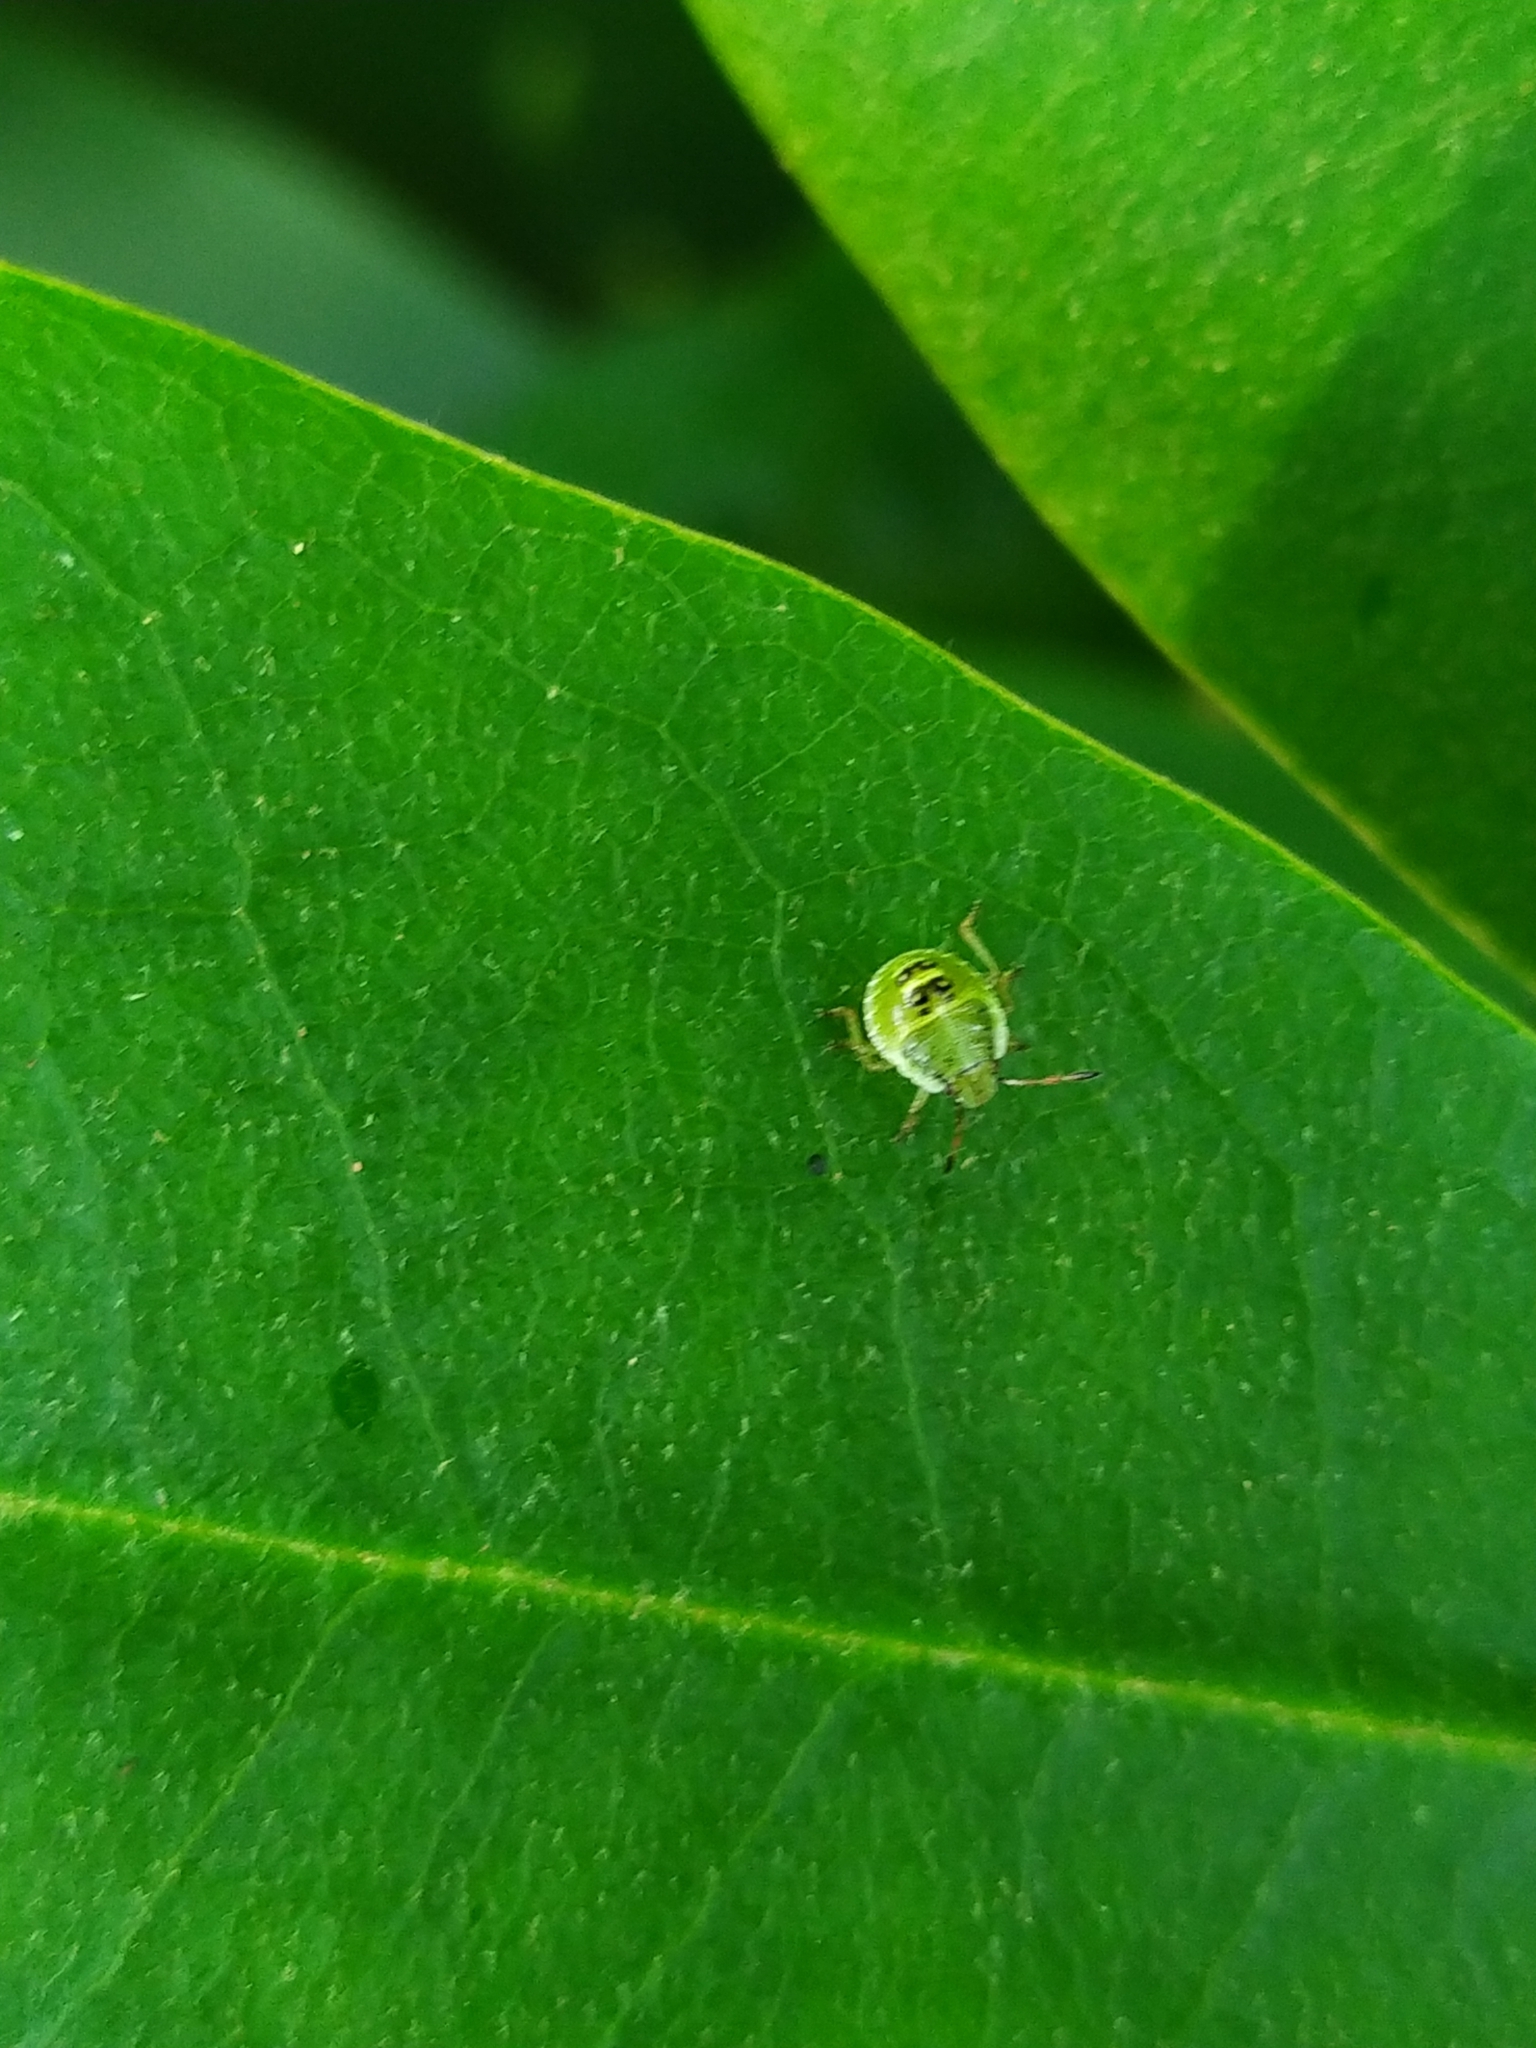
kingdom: Animalia
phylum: Arthropoda
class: Insecta
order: Hemiptera
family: Pentatomidae
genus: Palomena
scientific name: Palomena prasina
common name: Green shieldbug
